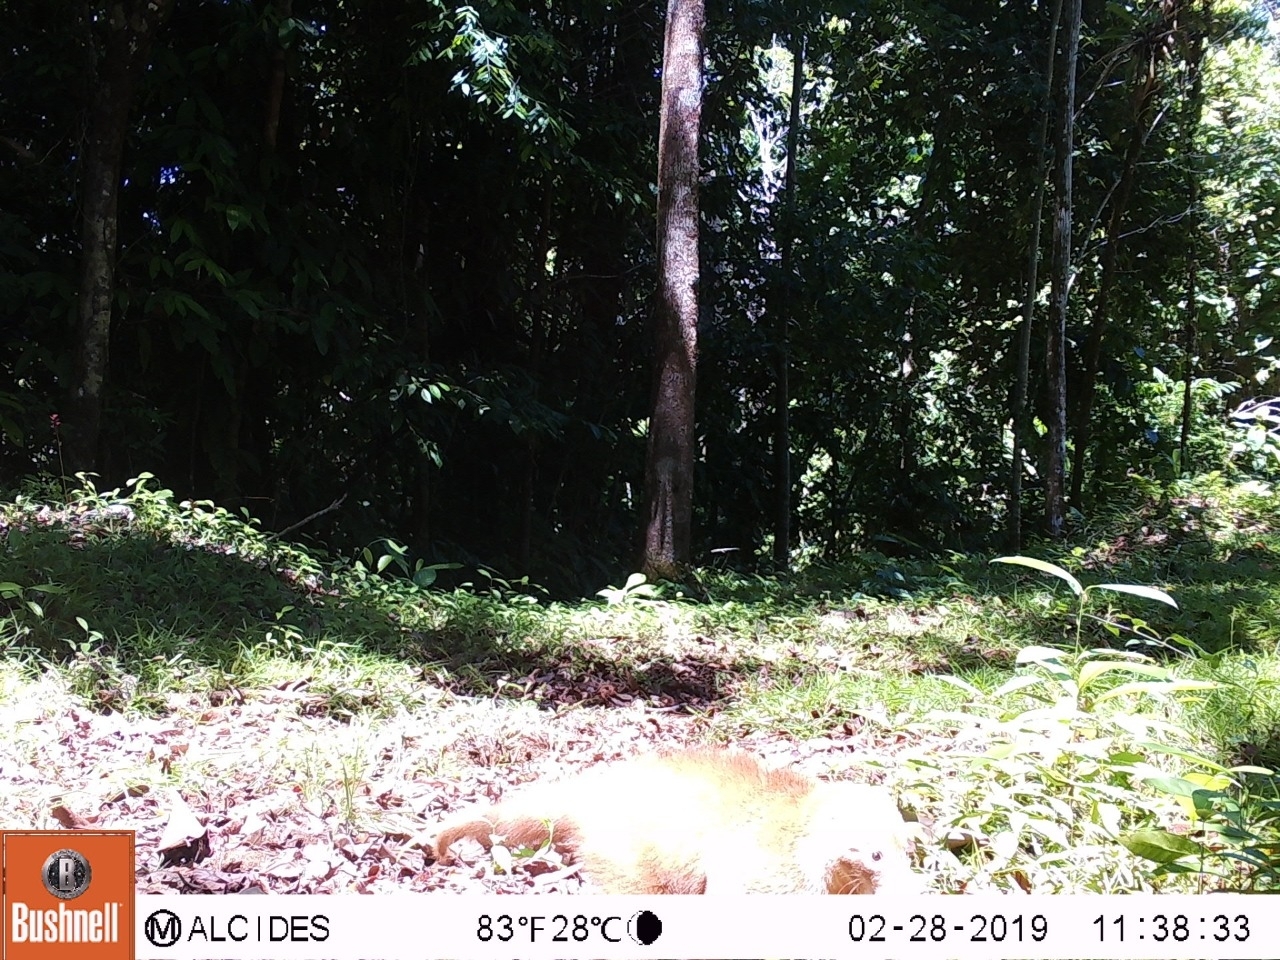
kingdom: Animalia
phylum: Chordata
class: Mammalia
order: Carnivora
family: Procyonidae
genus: Nasua
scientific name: Nasua narica
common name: White-nosed coati
